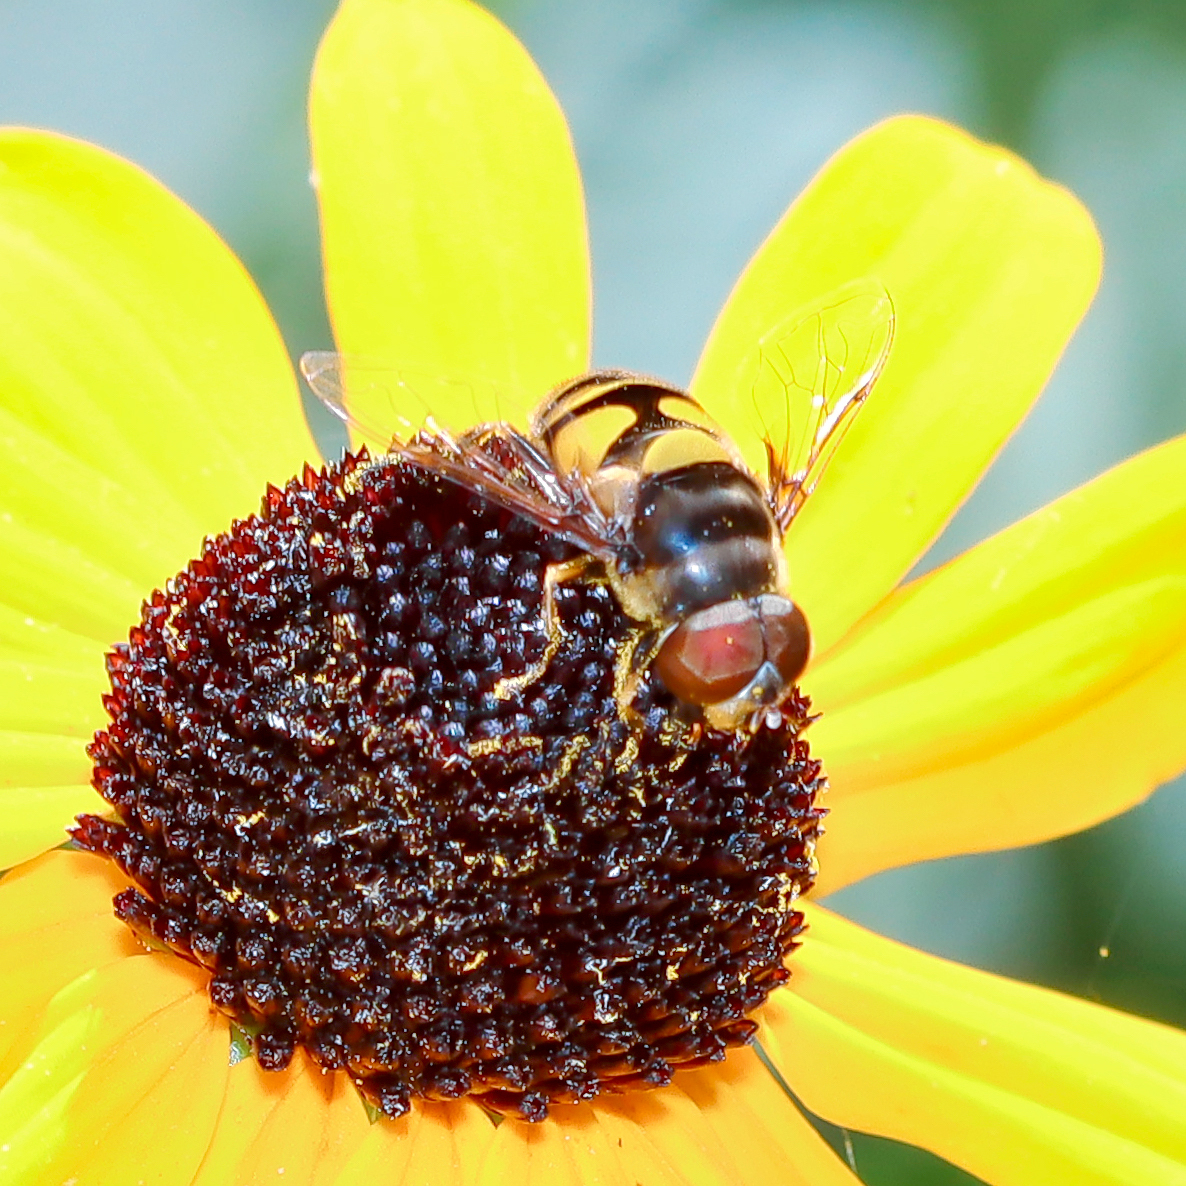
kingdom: Animalia
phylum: Arthropoda
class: Insecta
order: Diptera
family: Syrphidae
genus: Eristalis
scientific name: Eristalis transversa
